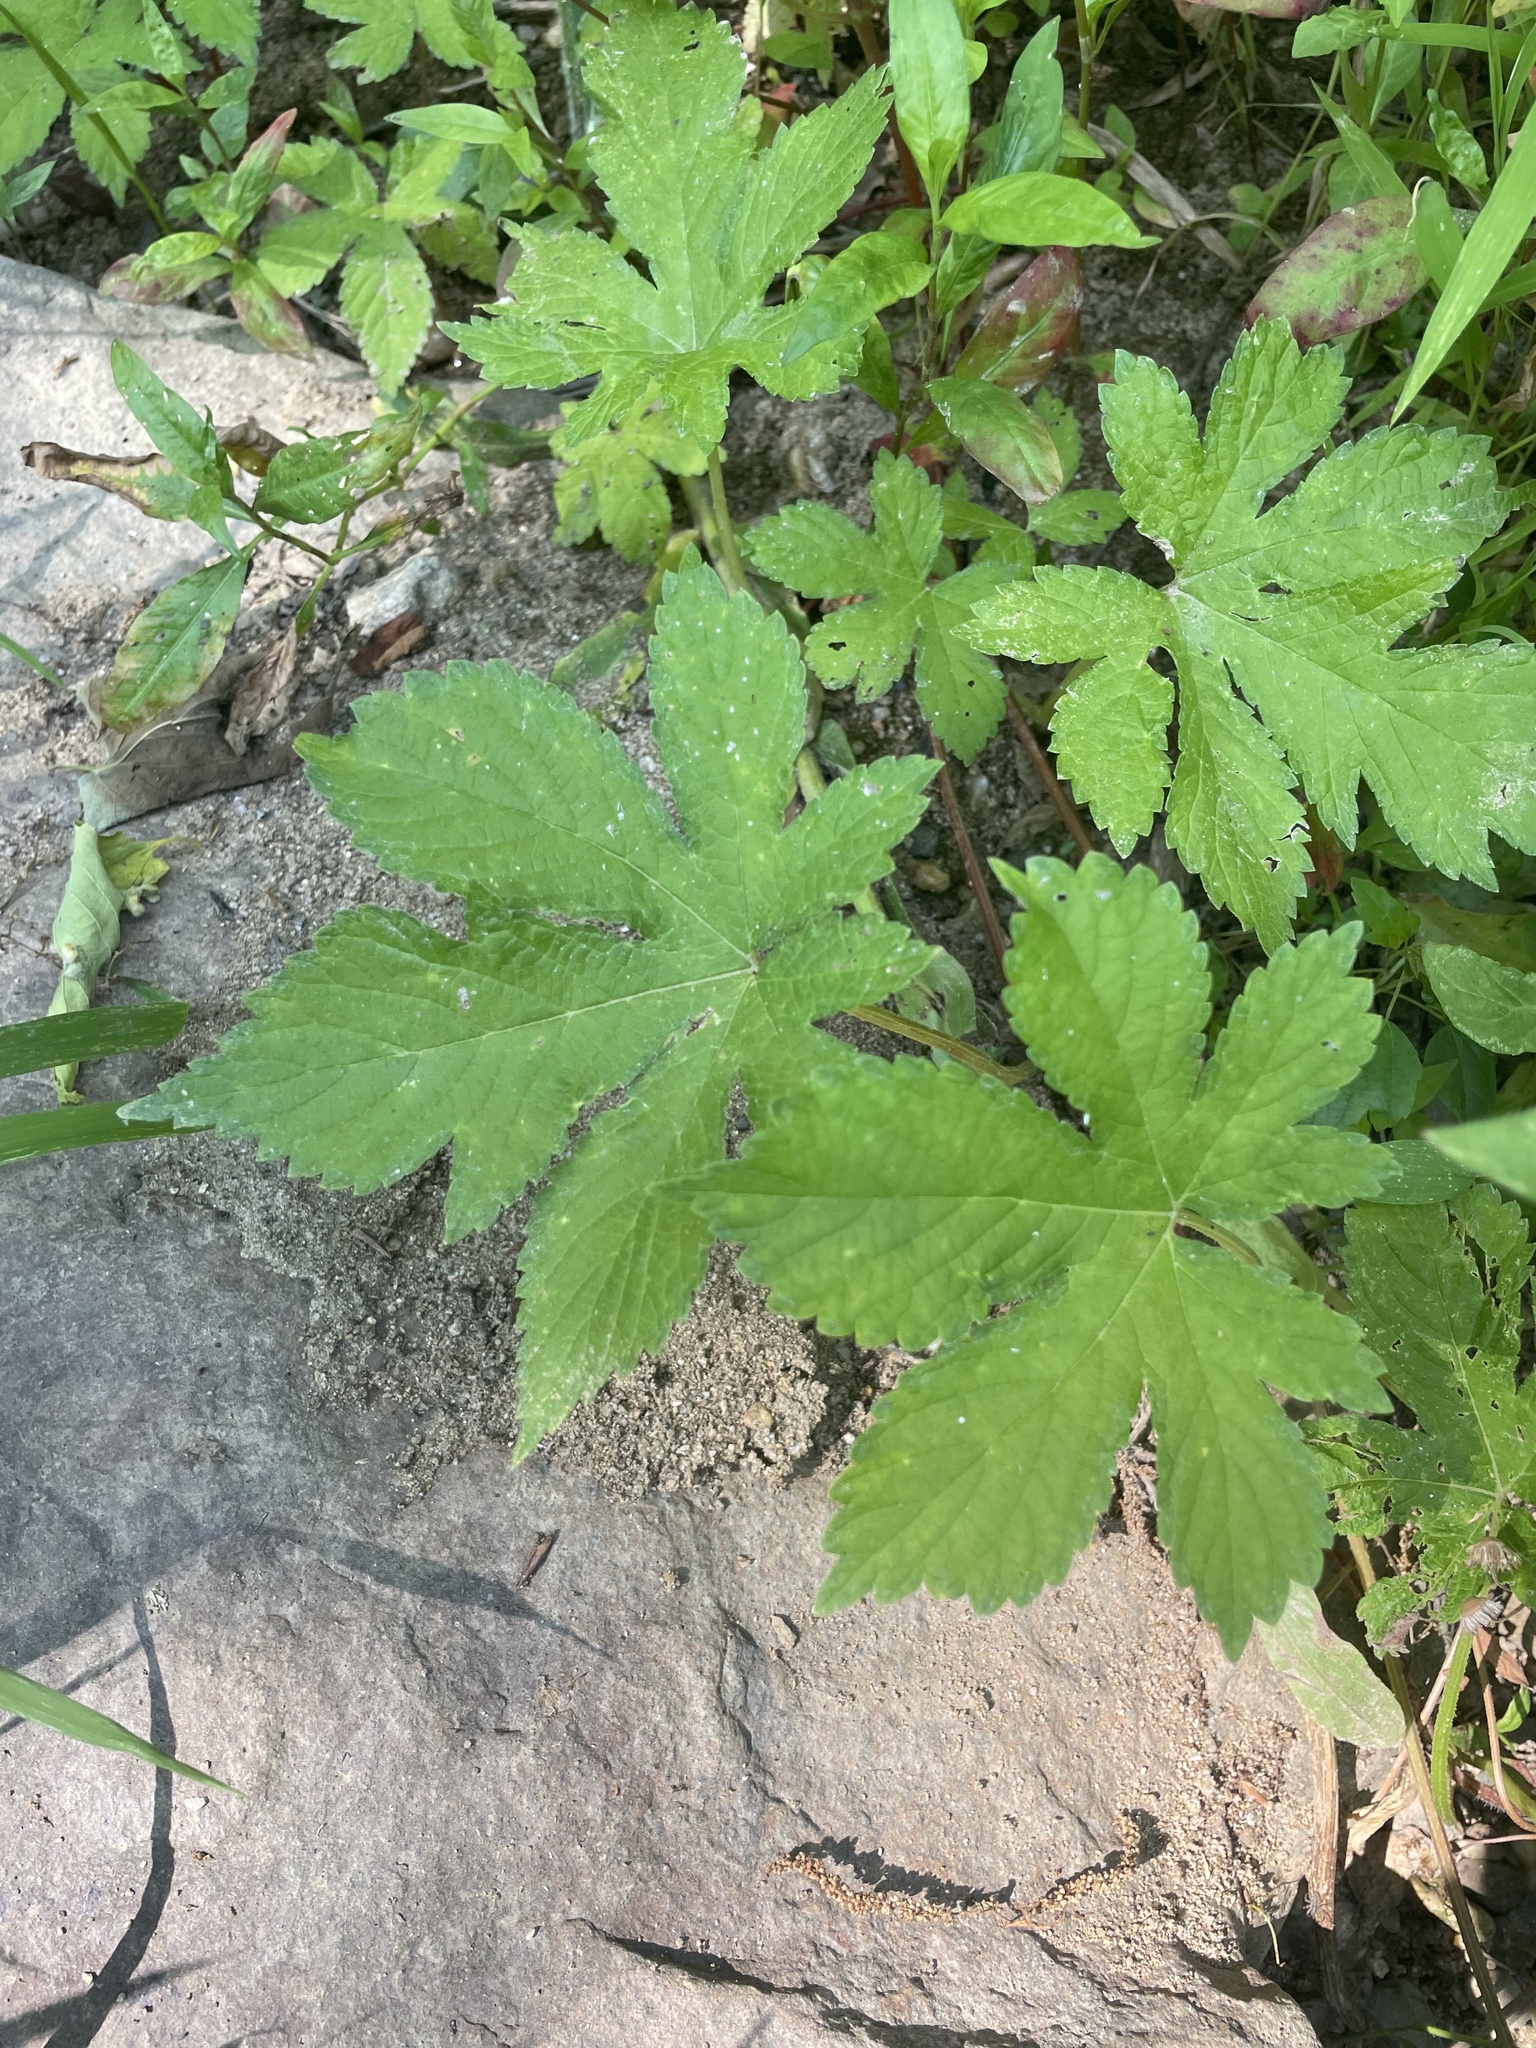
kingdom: Plantae
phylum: Tracheophyta
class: Magnoliopsida
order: Rosales
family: Cannabaceae
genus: Humulus
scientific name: Humulus scandens
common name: Japanese hop
